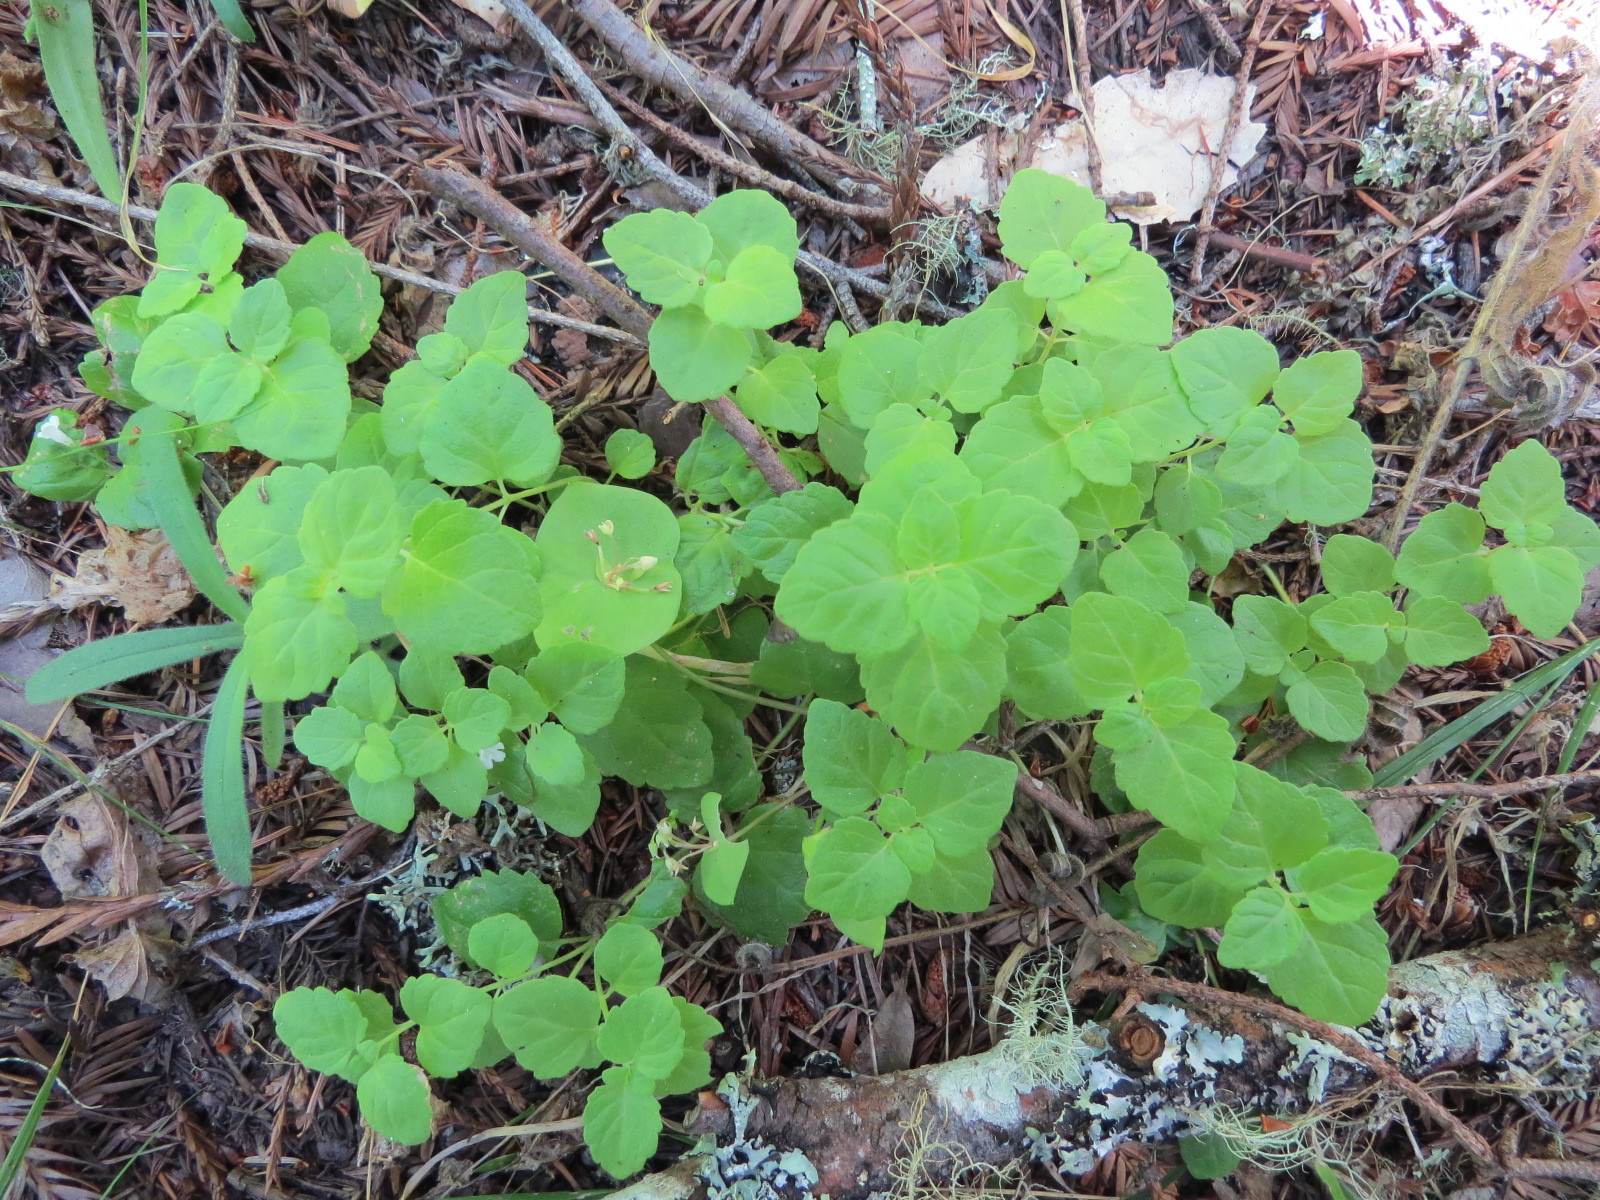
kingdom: Plantae
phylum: Tracheophyta
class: Magnoliopsida
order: Lamiales
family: Lamiaceae
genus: Micromeria
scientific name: Micromeria douglasii
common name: Yerba buena
